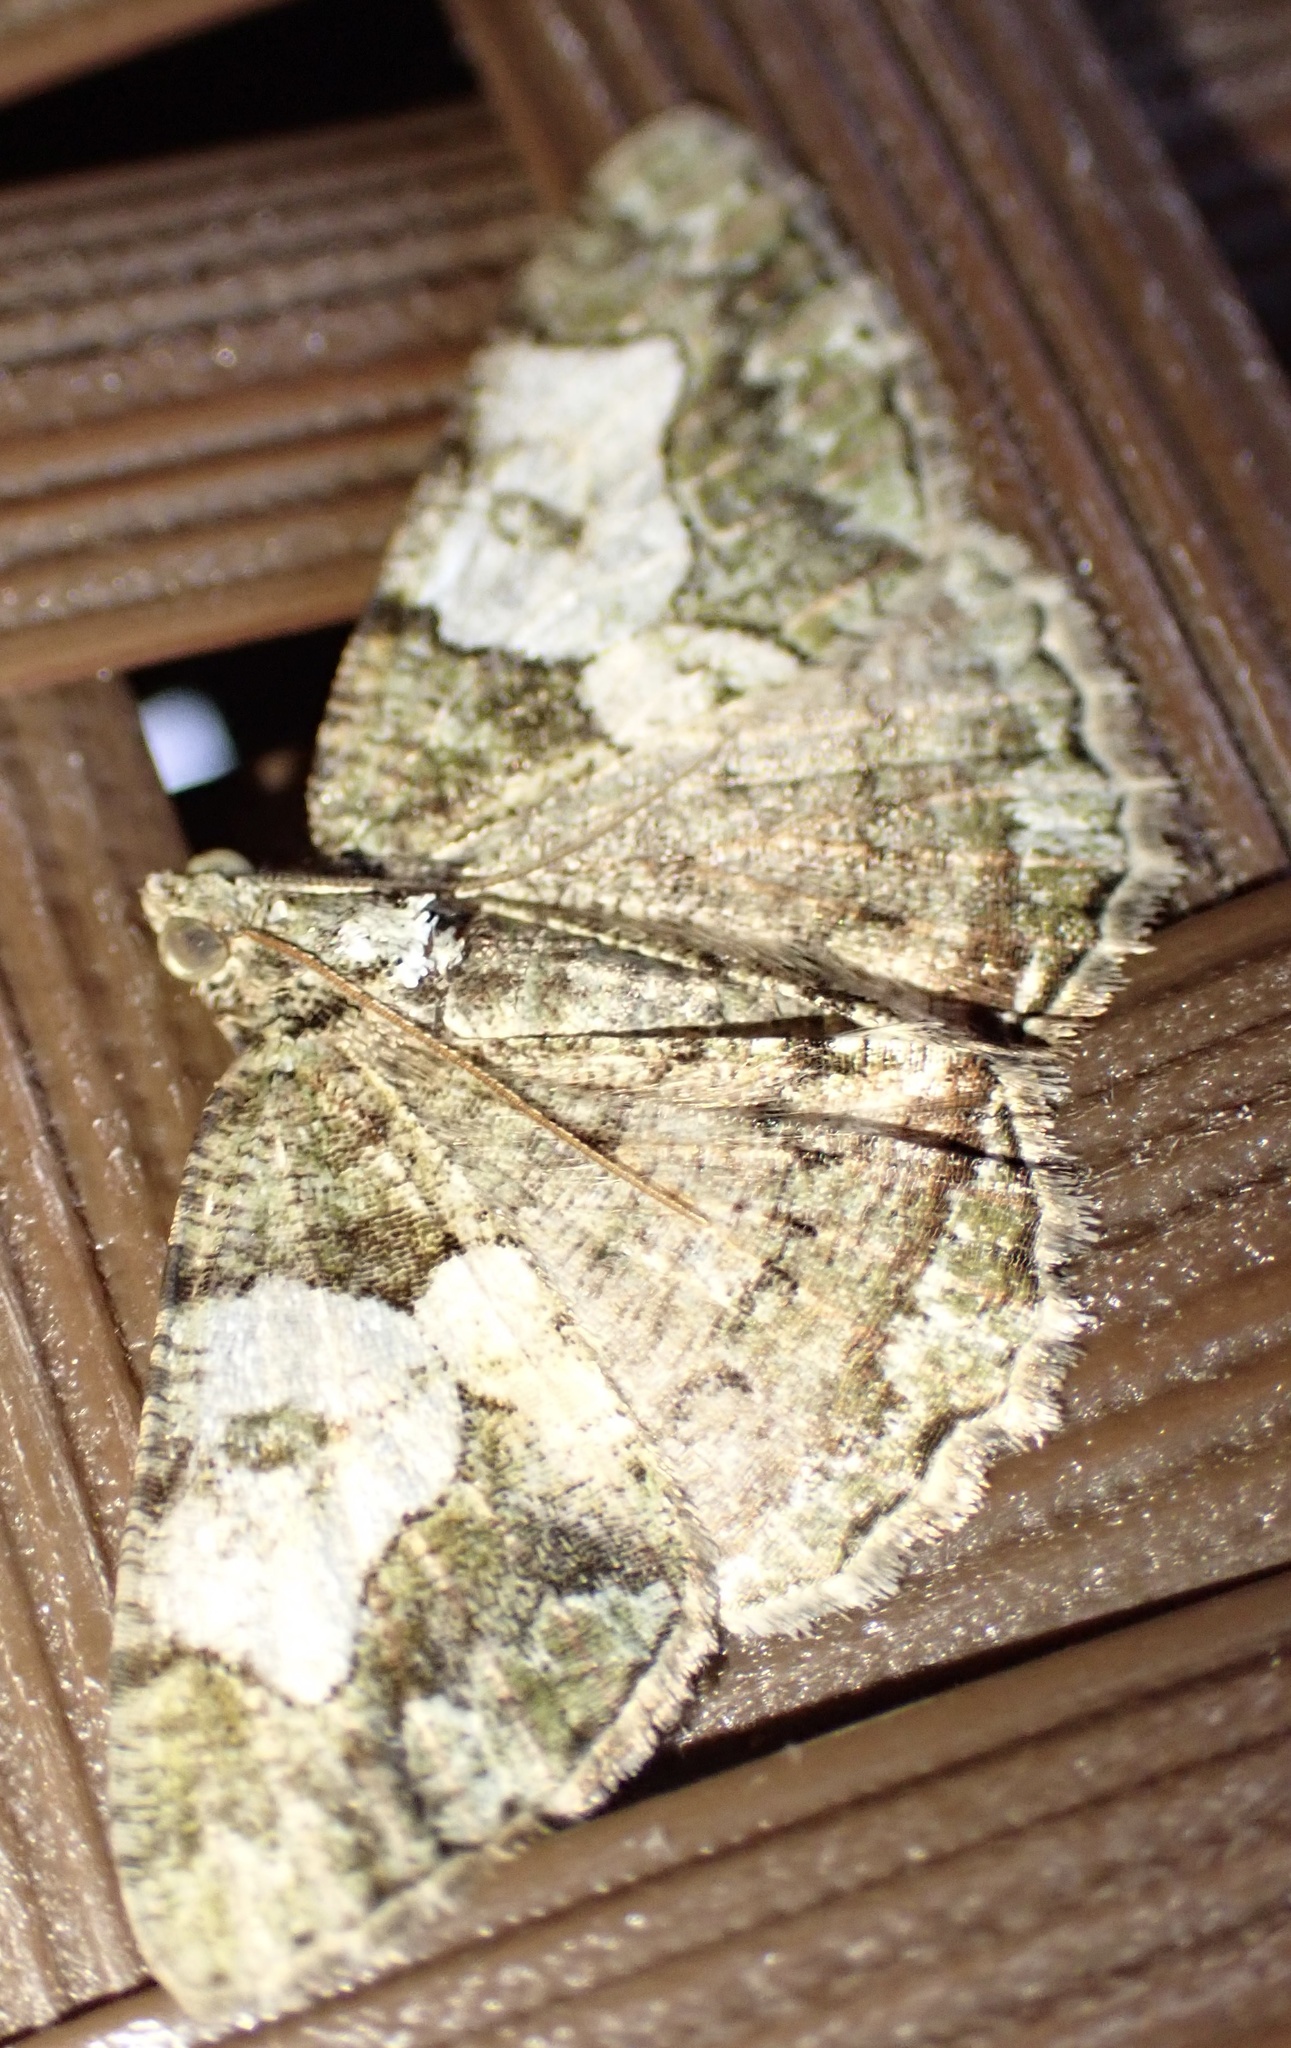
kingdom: Animalia
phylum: Arthropoda
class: Insecta
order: Lepidoptera
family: Geometridae
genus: Xylopteryx
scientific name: Xylopteryx prasinaria
